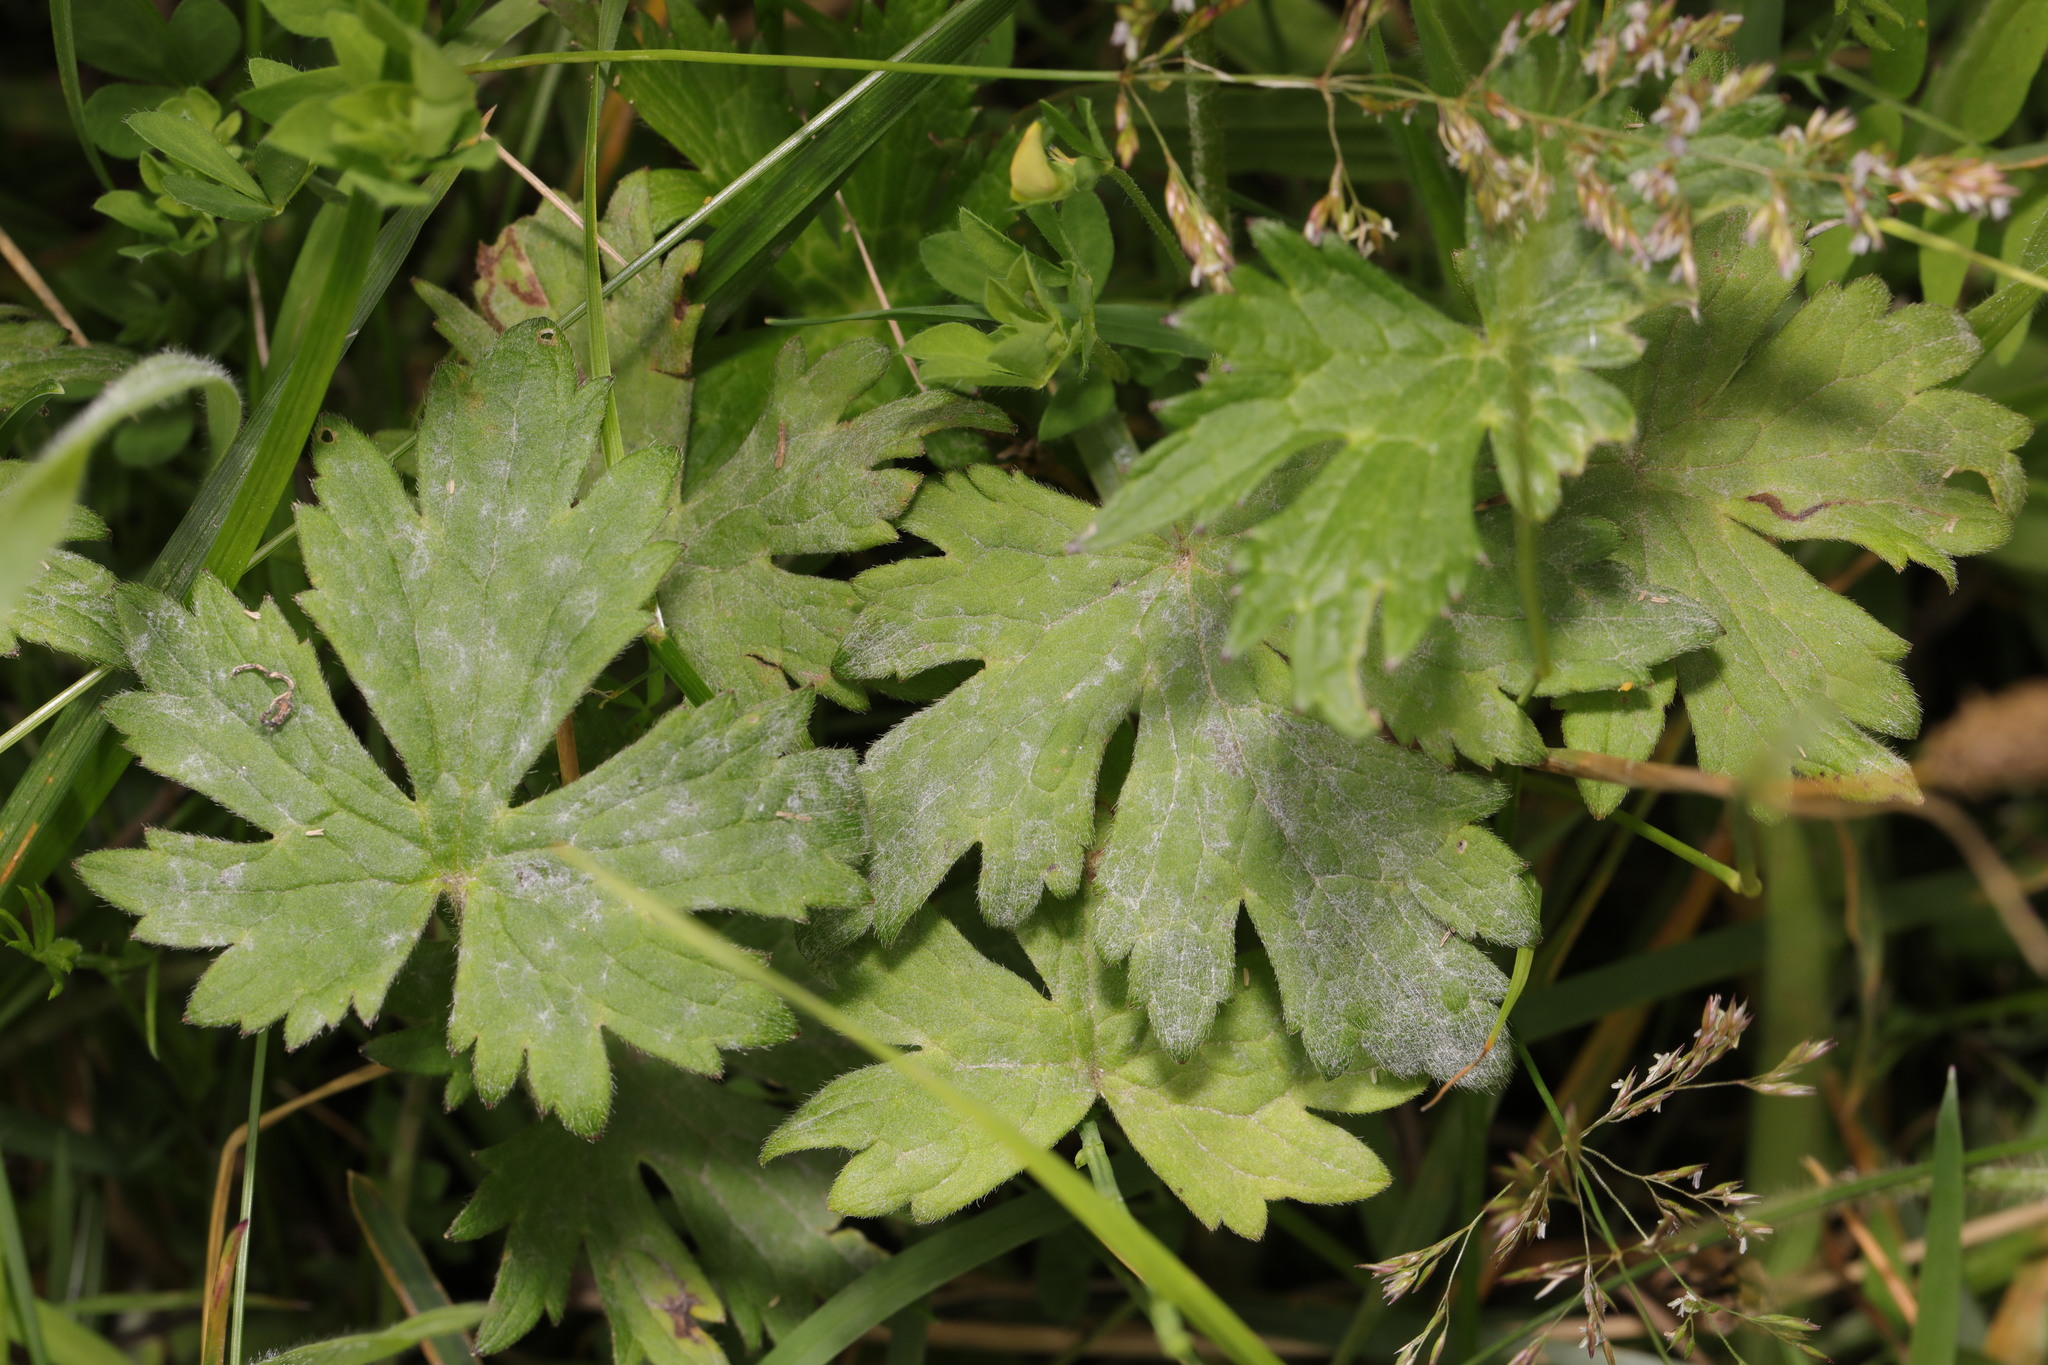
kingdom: Plantae
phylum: Tracheophyta
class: Magnoliopsida
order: Ranunculales
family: Ranunculaceae
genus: Ranunculus
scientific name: Ranunculus repens
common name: Creeping buttercup
